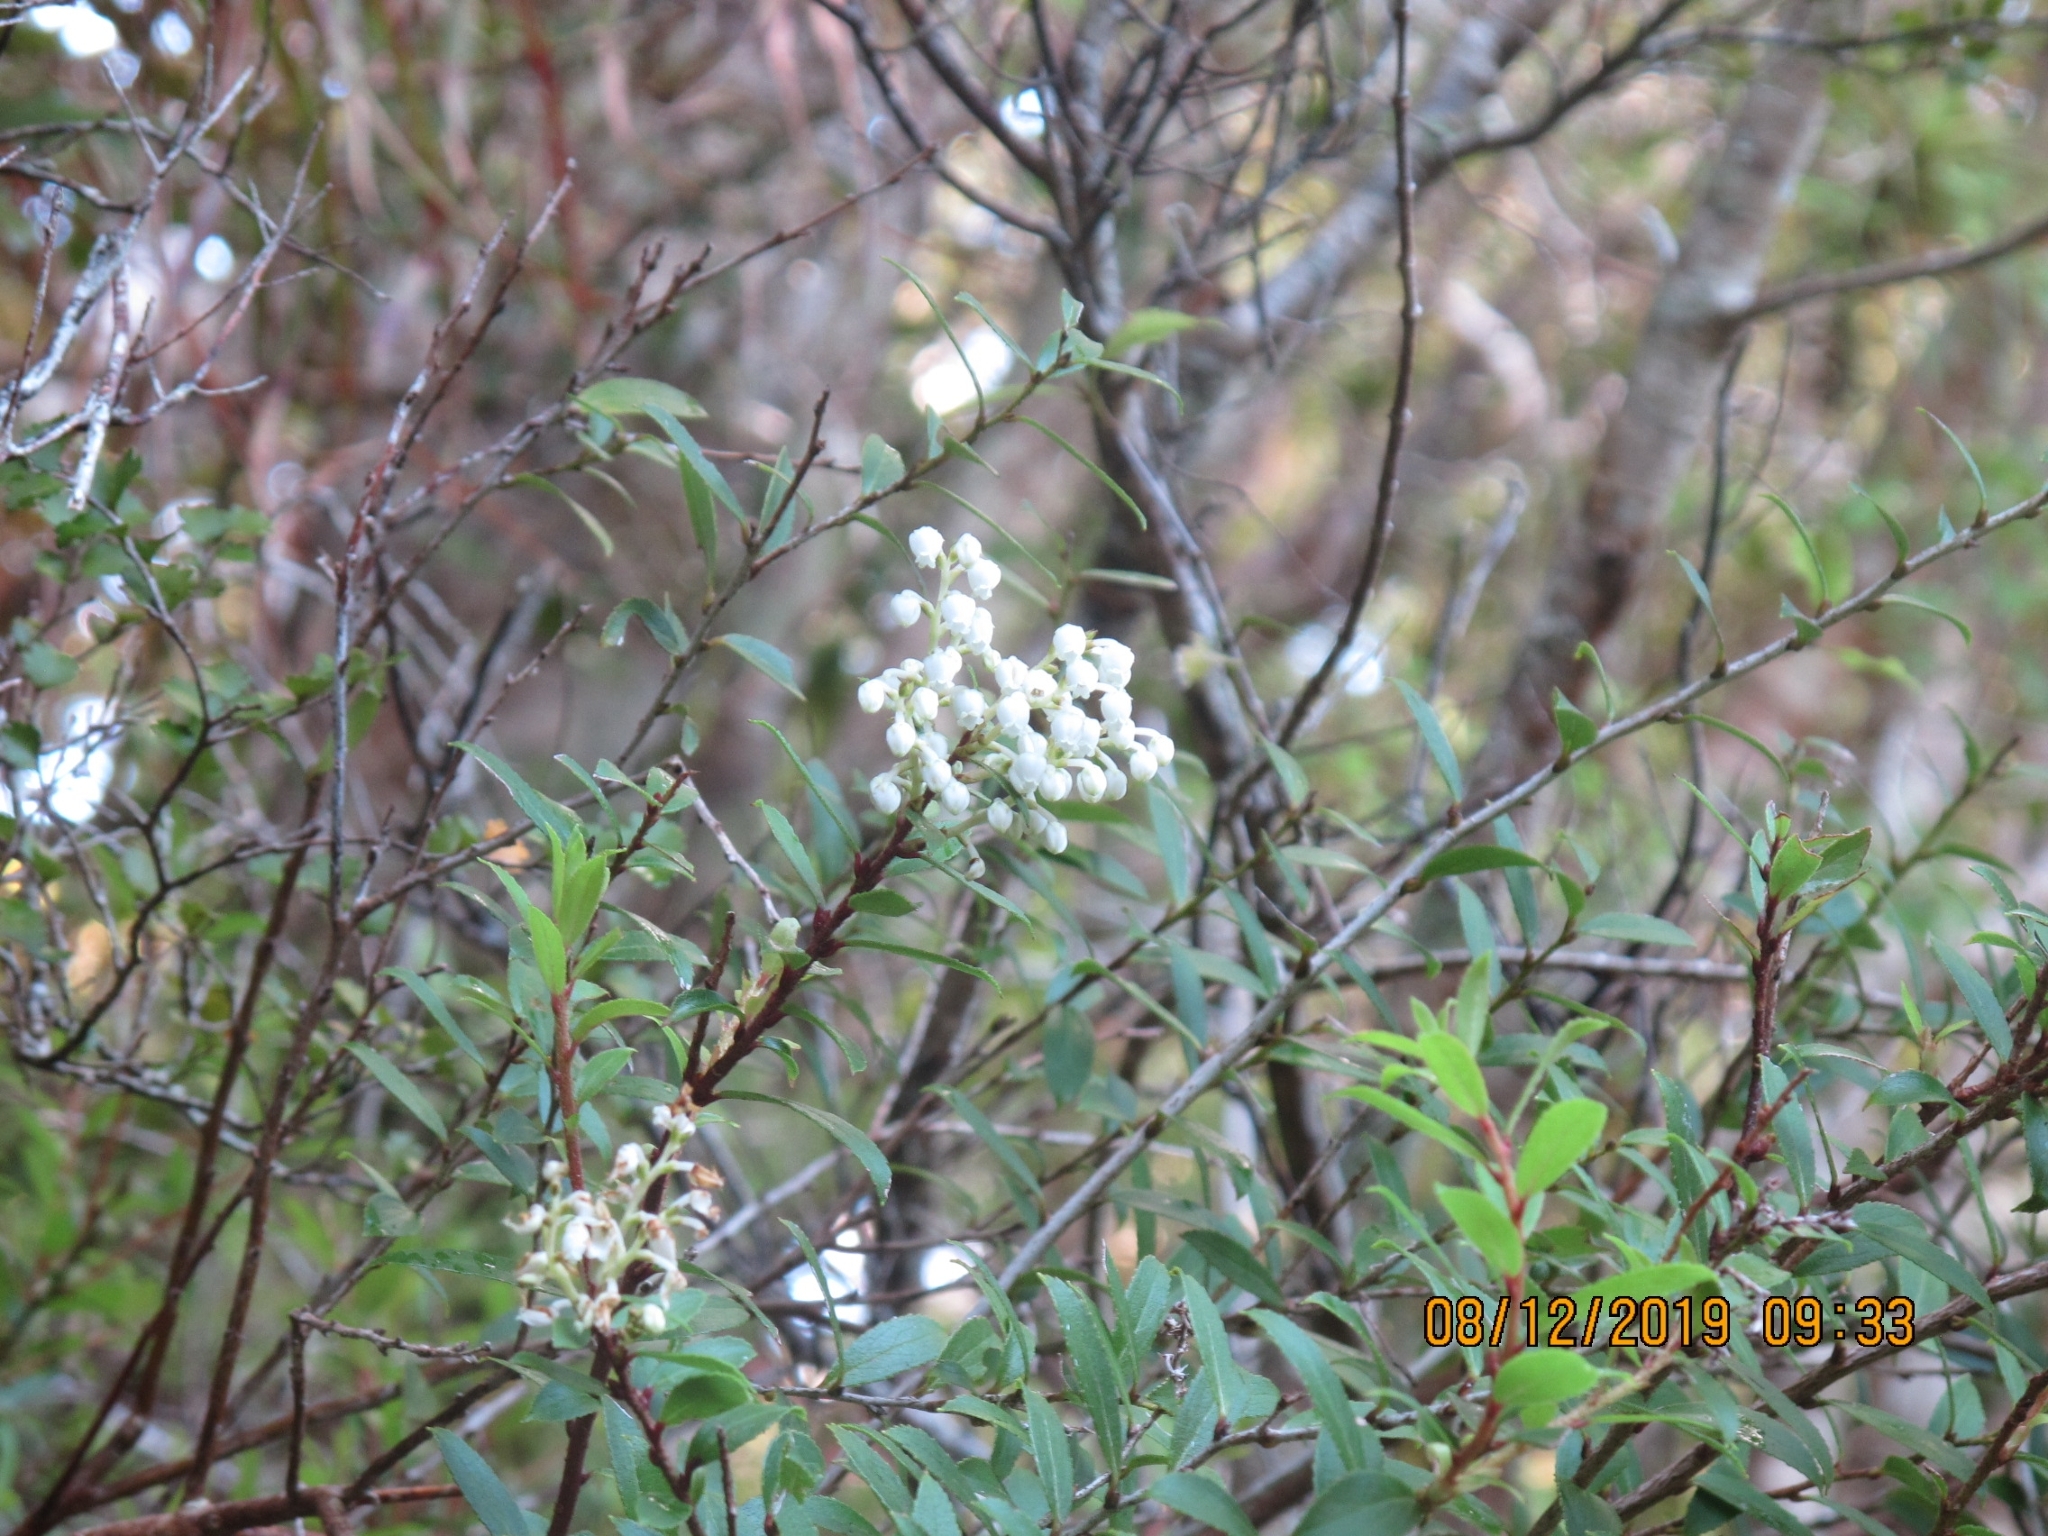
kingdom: Plantae
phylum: Tracheophyta
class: Magnoliopsida
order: Ericales
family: Ericaceae
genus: Leucopogon
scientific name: Leucopogon fasciculatus
